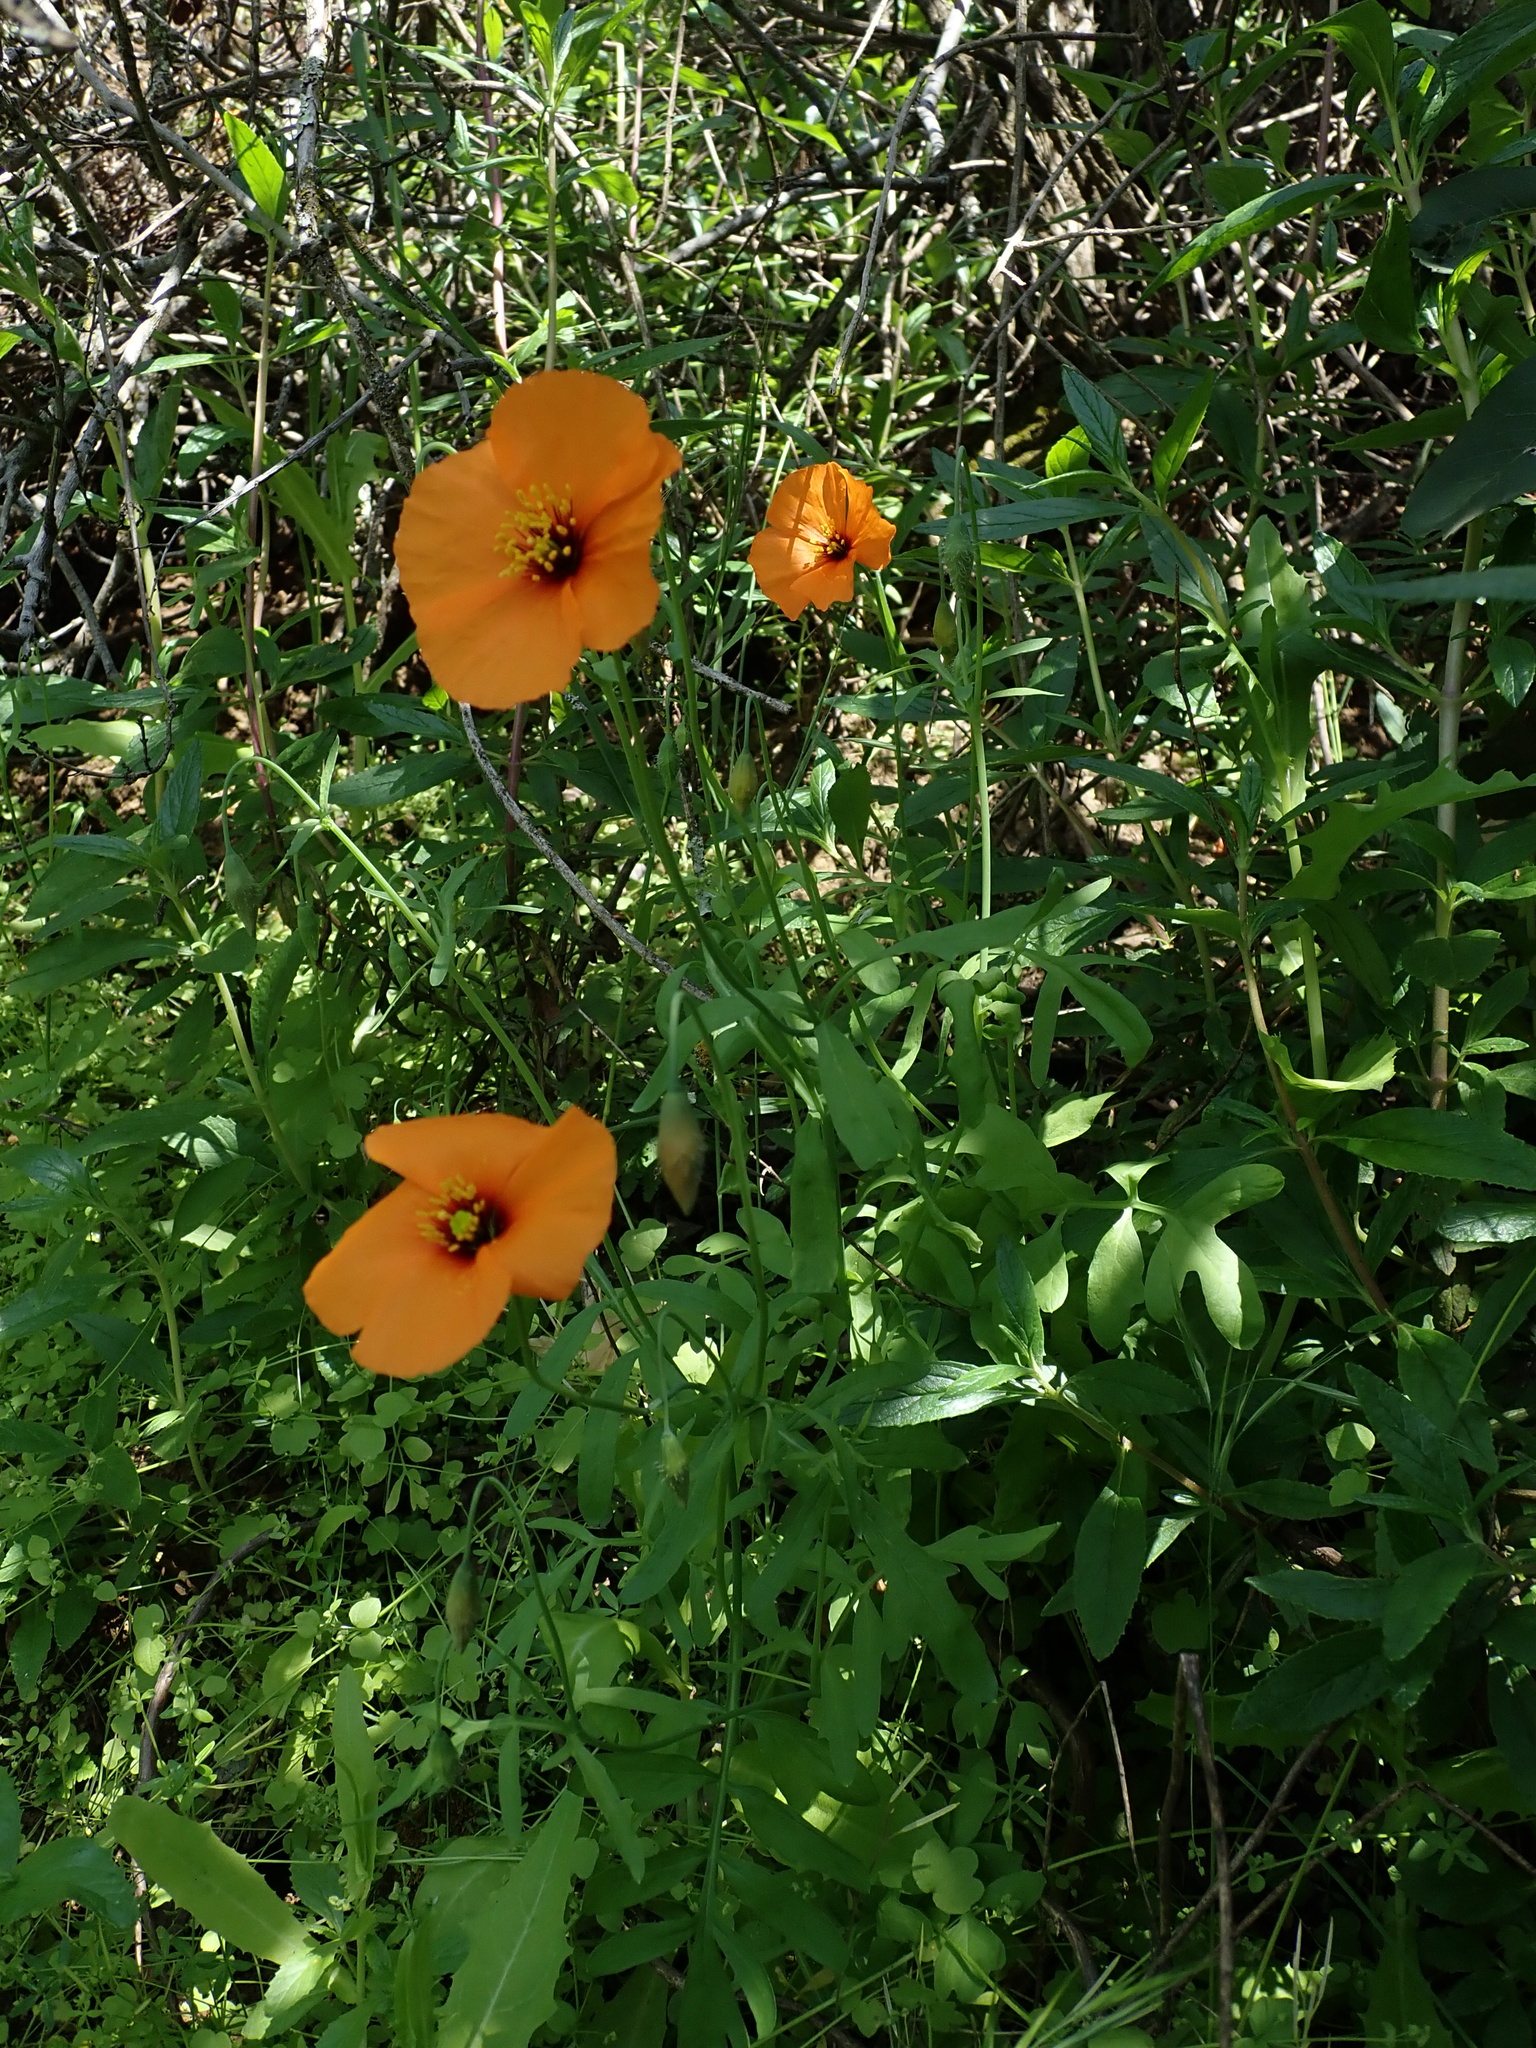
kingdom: Plantae
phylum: Tracheophyta
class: Magnoliopsida
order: Ranunculales
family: Papaveraceae
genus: Stylomecon
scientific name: Stylomecon heterophylla
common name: Flaming-poppy
